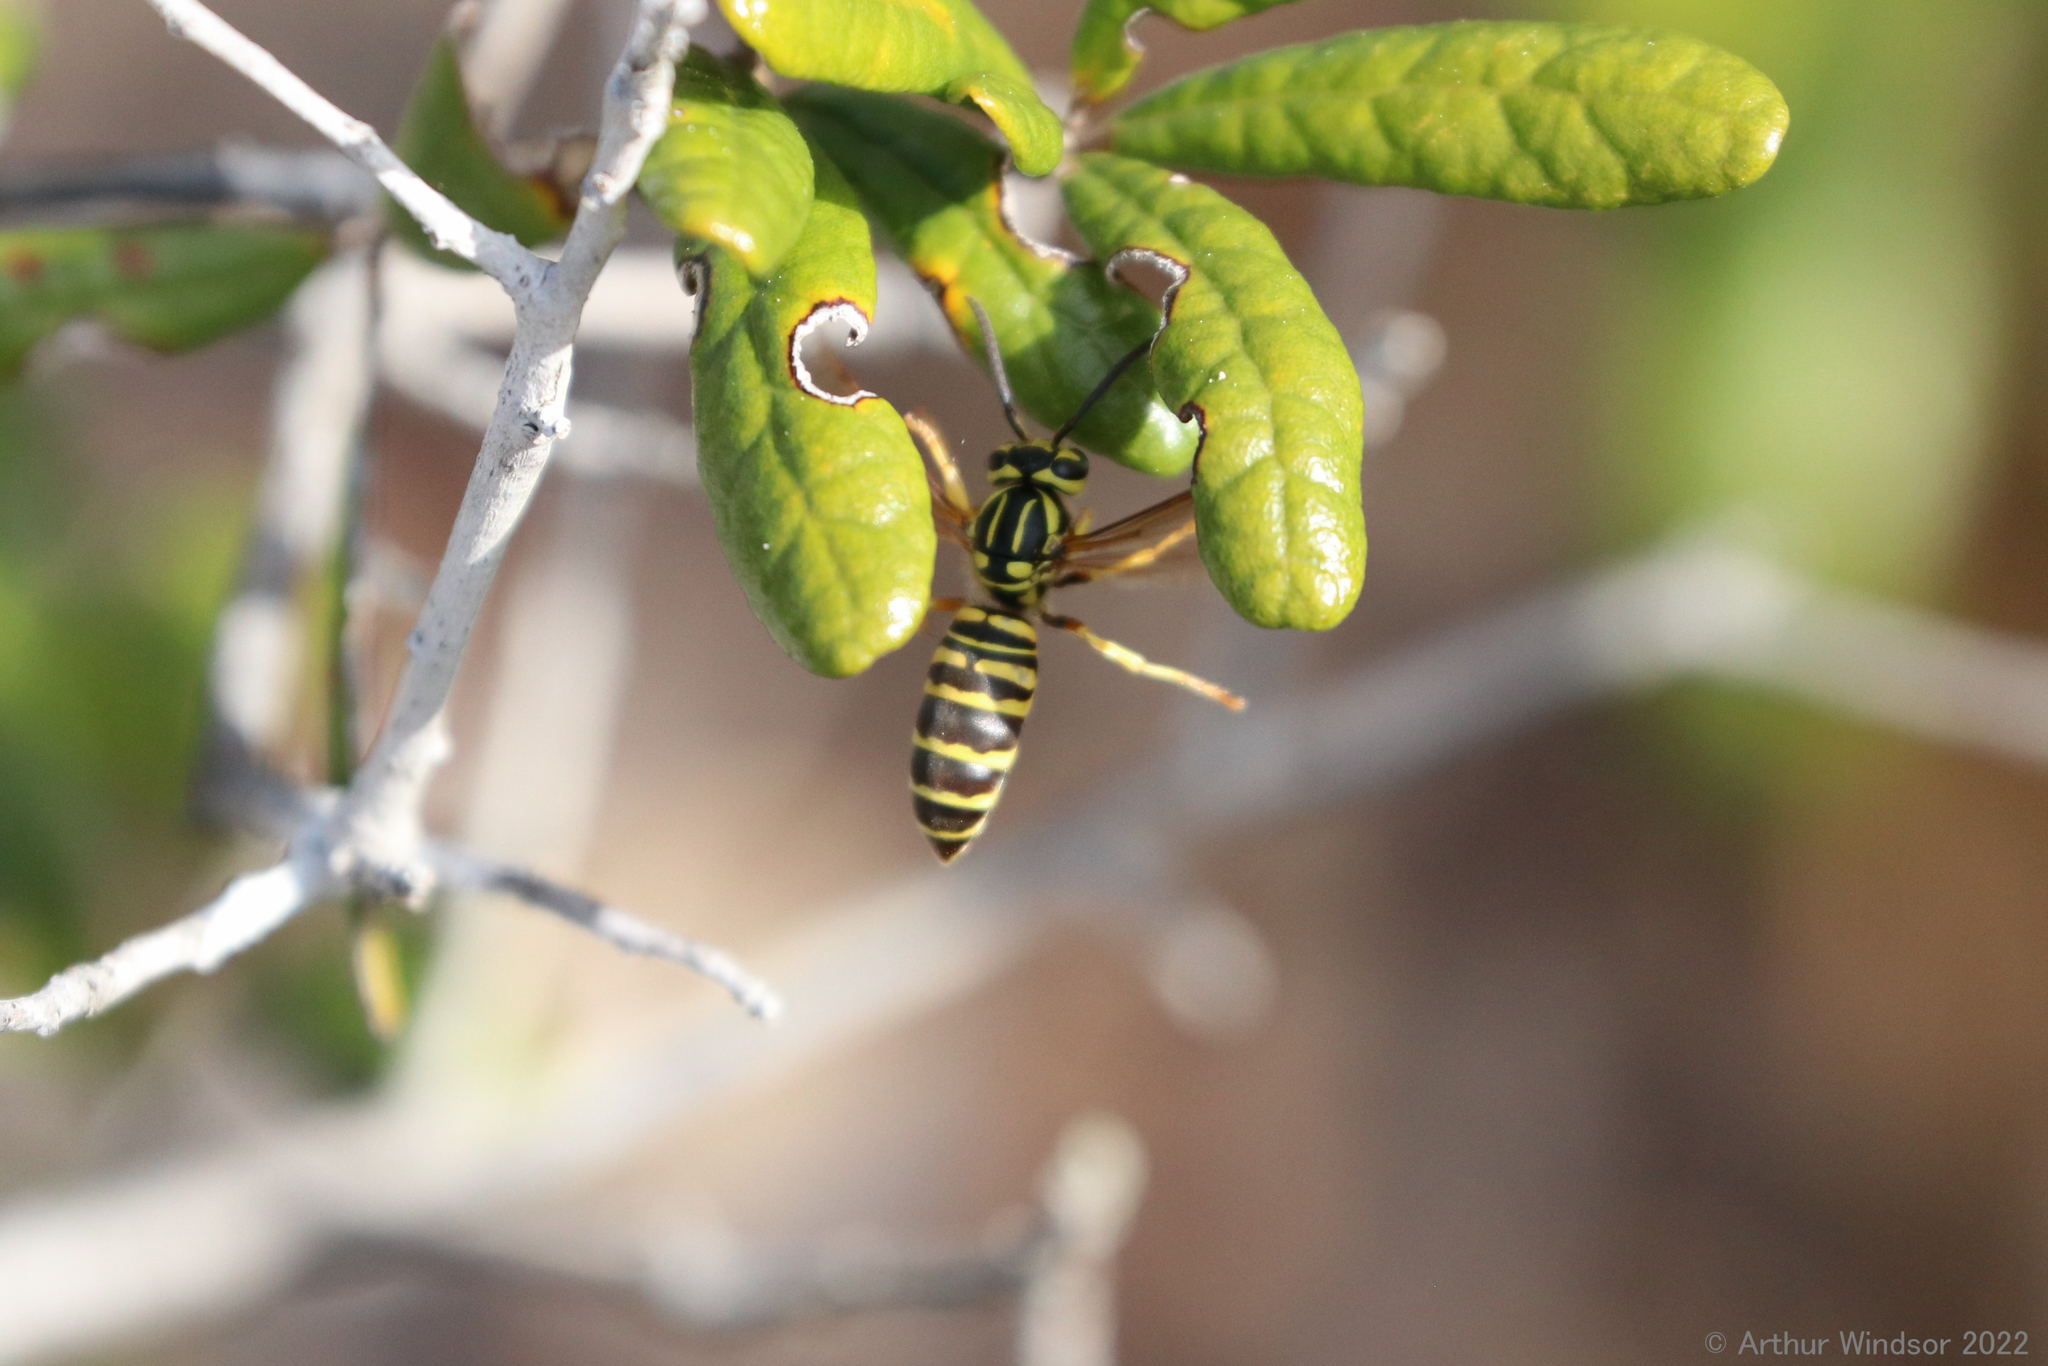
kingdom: Animalia
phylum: Arthropoda
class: Insecta
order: Hymenoptera
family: Vespidae
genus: Vespula
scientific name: Vespula squamosa
